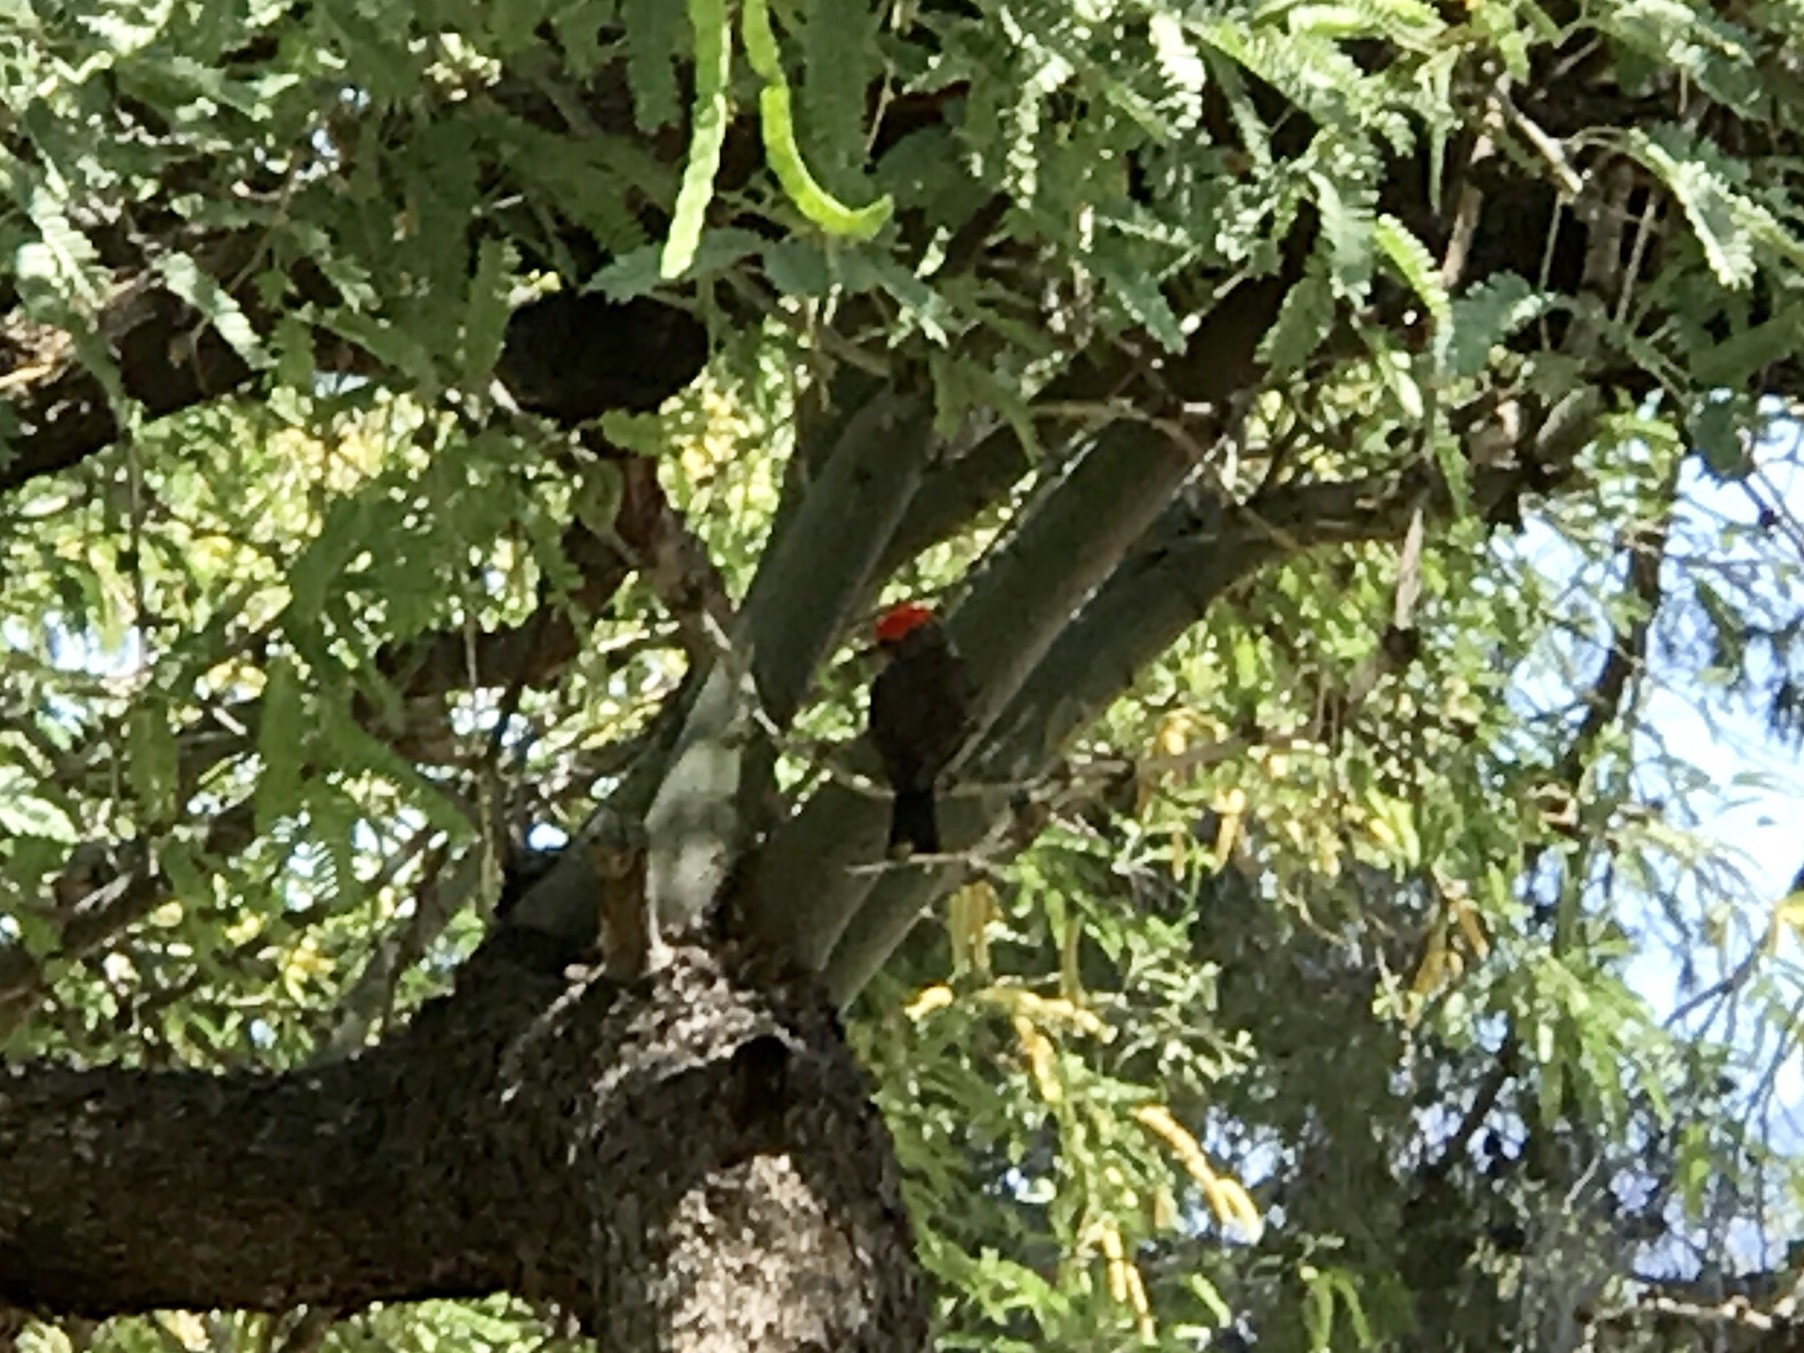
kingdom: Animalia
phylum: Chordata
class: Aves
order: Passeriformes
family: Tyrannidae
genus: Pyrocephalus
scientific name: Pyrocephalus rubinus
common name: Vermilion flycatcher
